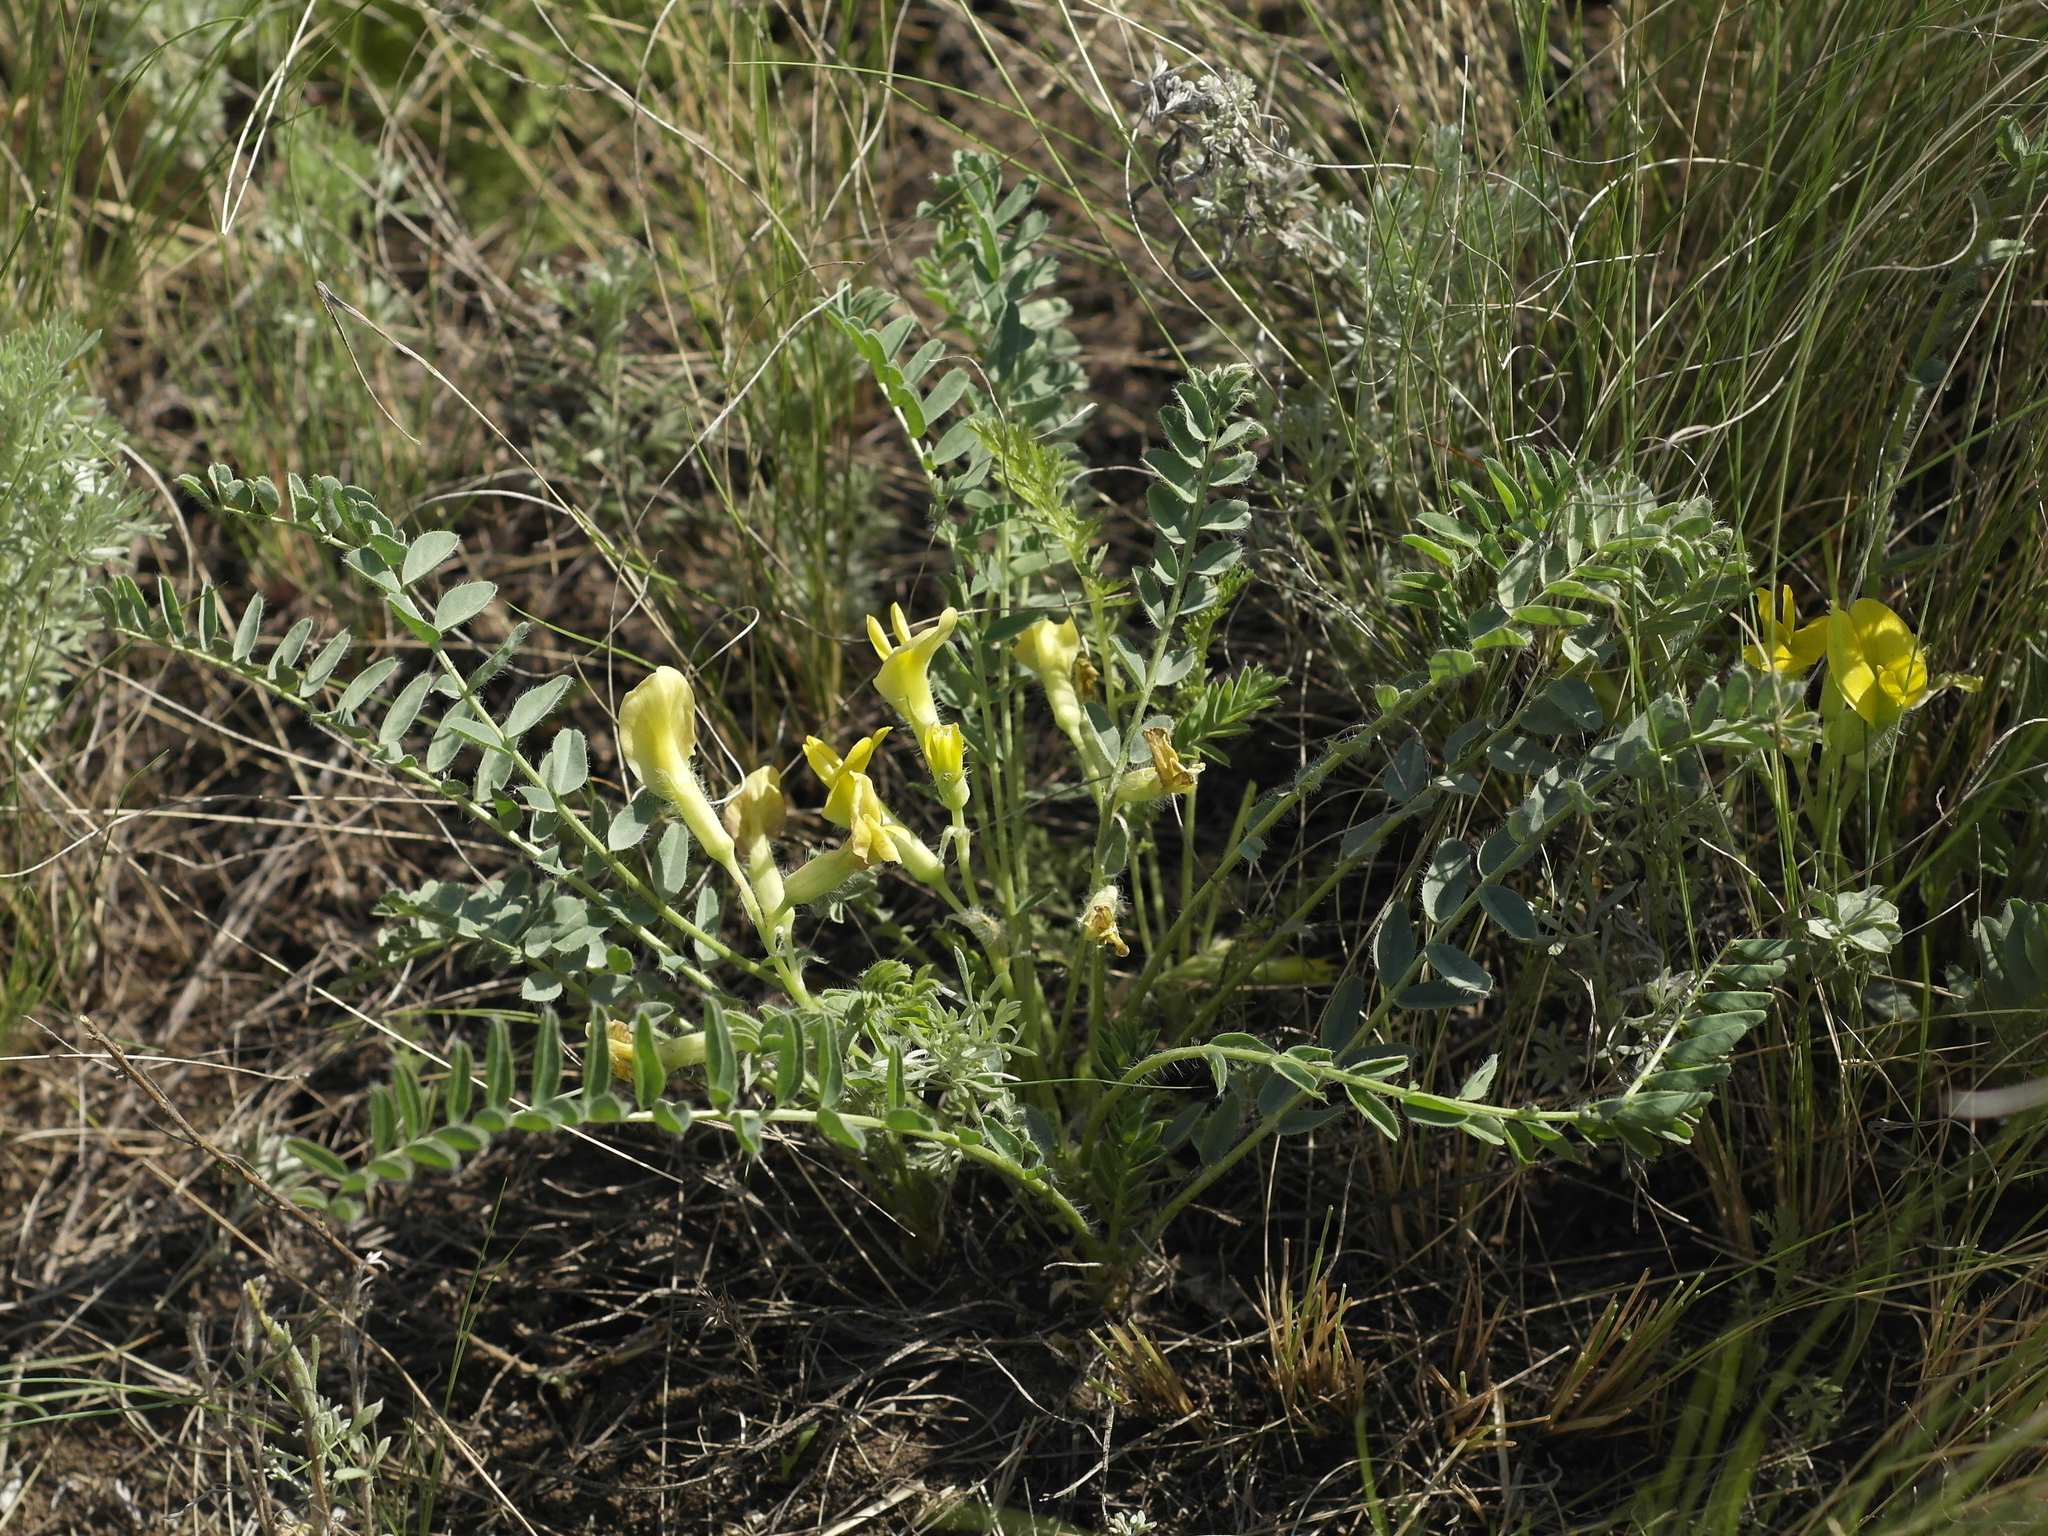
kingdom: Plantae
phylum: Tracheophyta
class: Magnoliopsida
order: Fabales
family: Fabaceae
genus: Astragalus
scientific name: Astragalus wolgensis
